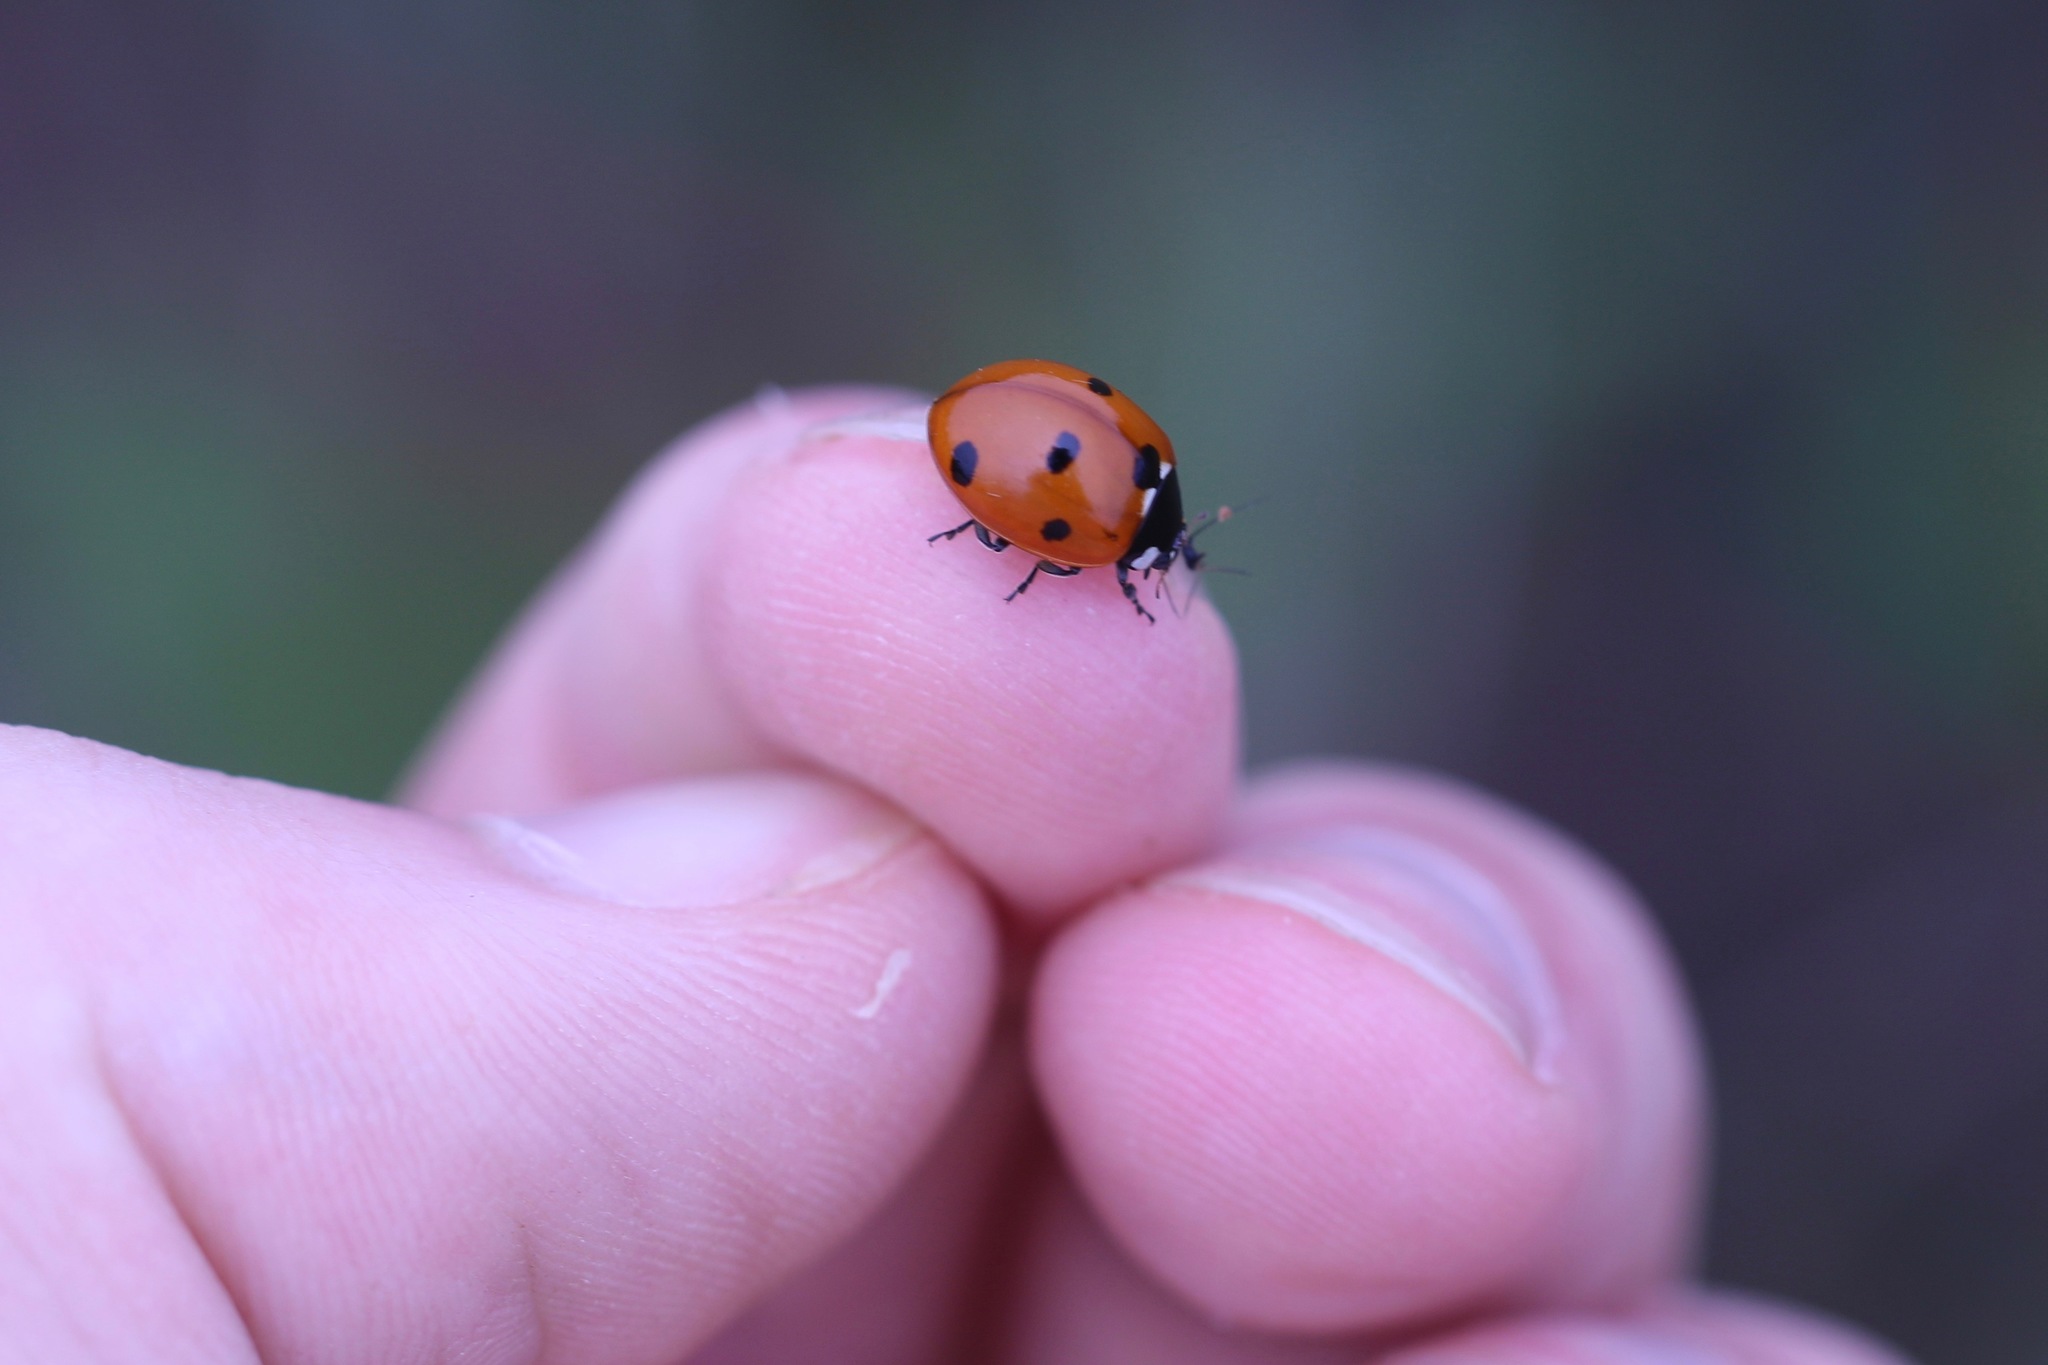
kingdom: Animalia
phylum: Arthropoda
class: Insecta
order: Coleoptera
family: Coccinellidae
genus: Coccinella
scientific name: Coccinella septempunctata
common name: Sevenspotted lady beetle
